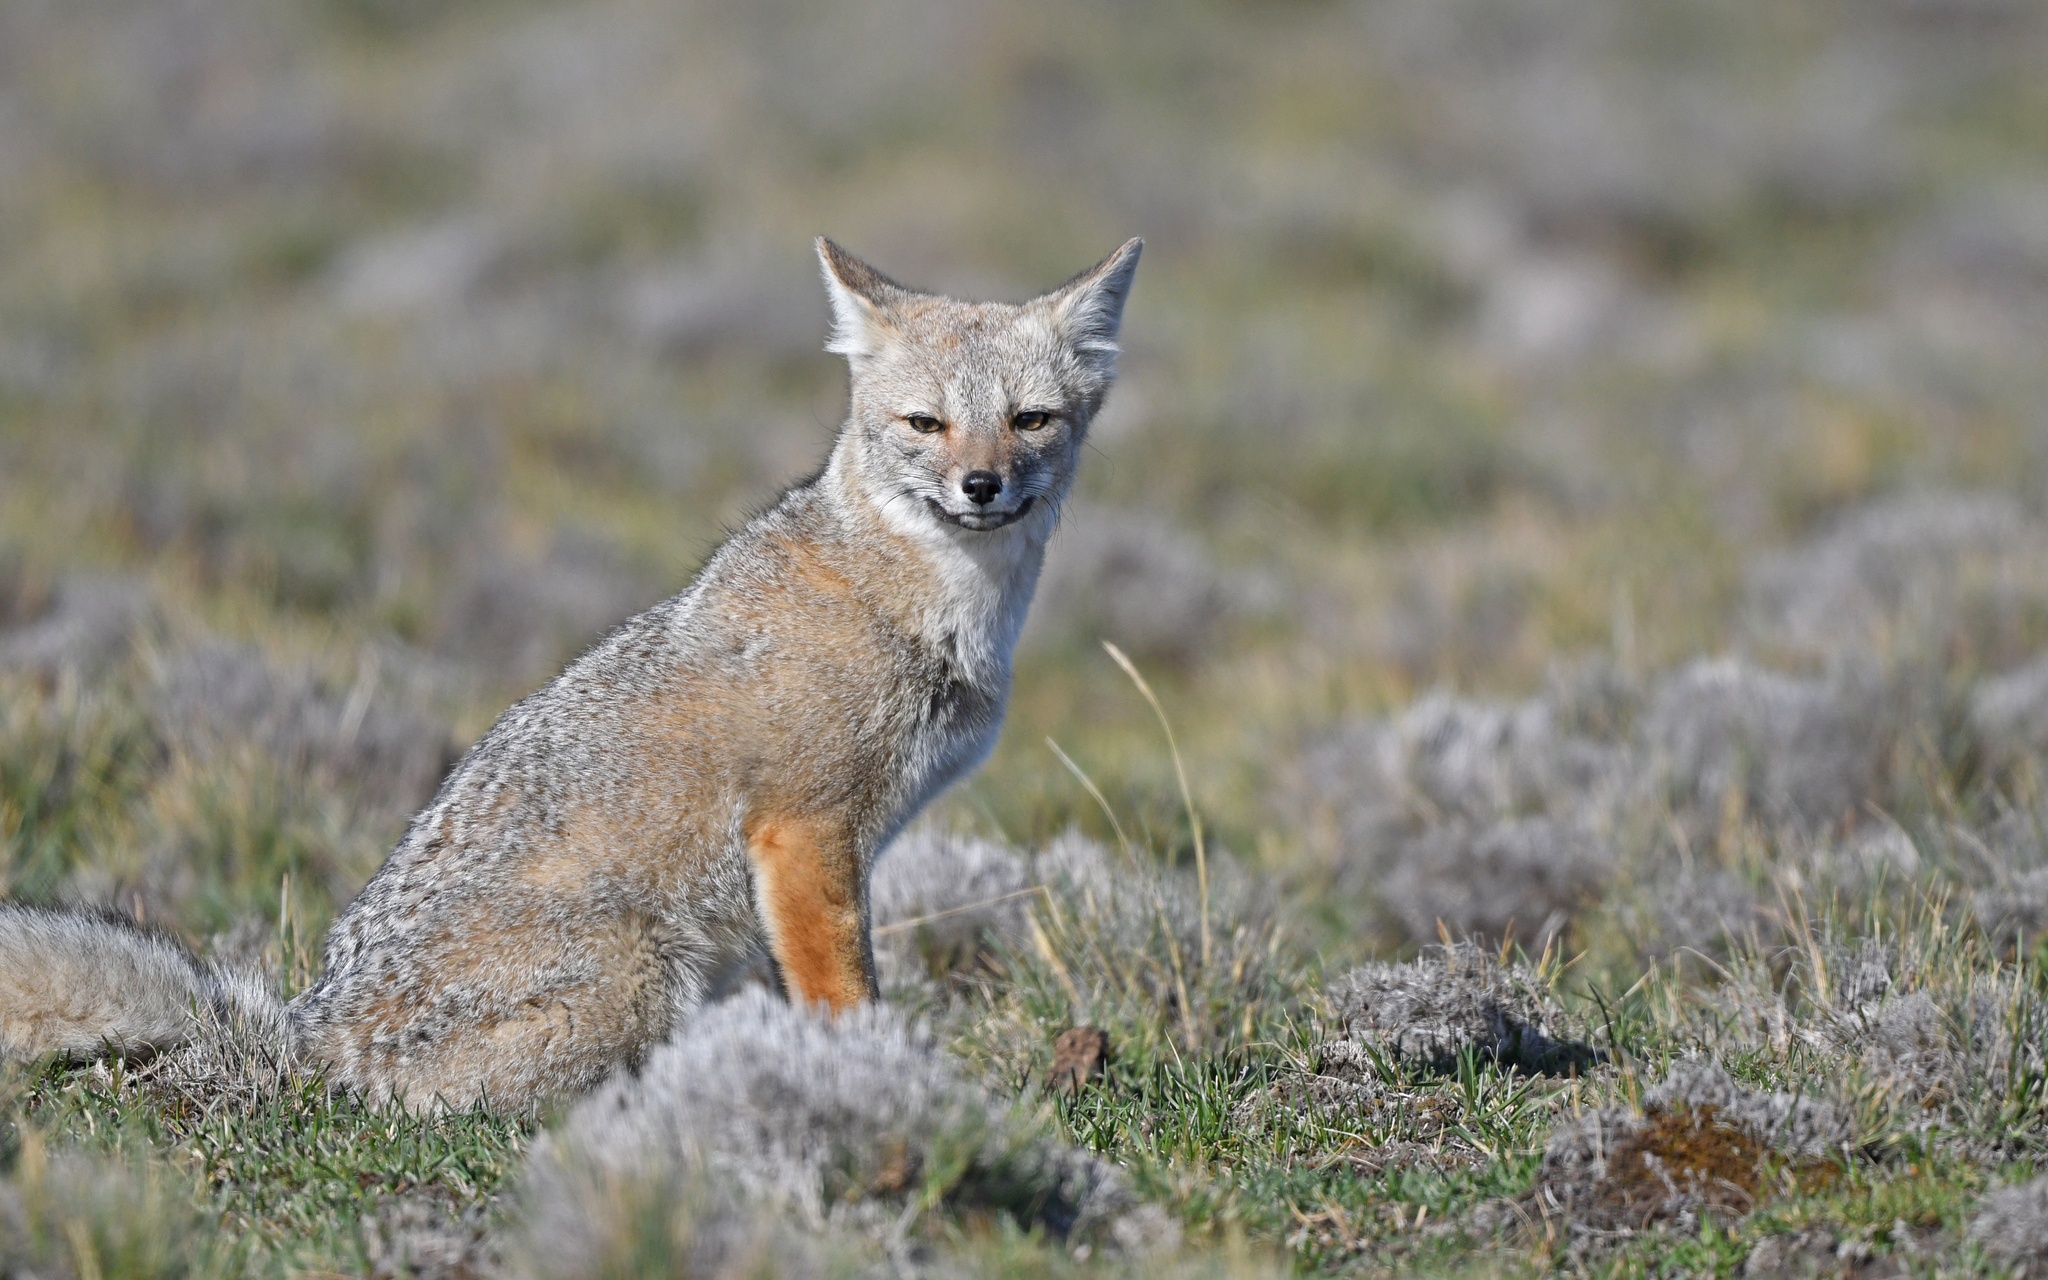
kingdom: Animalia
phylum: Chordata
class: Mammalia
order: Carnivora
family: Canidae
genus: Lycalopex
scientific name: Lycalopex gymnocercus
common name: Pampas fox
